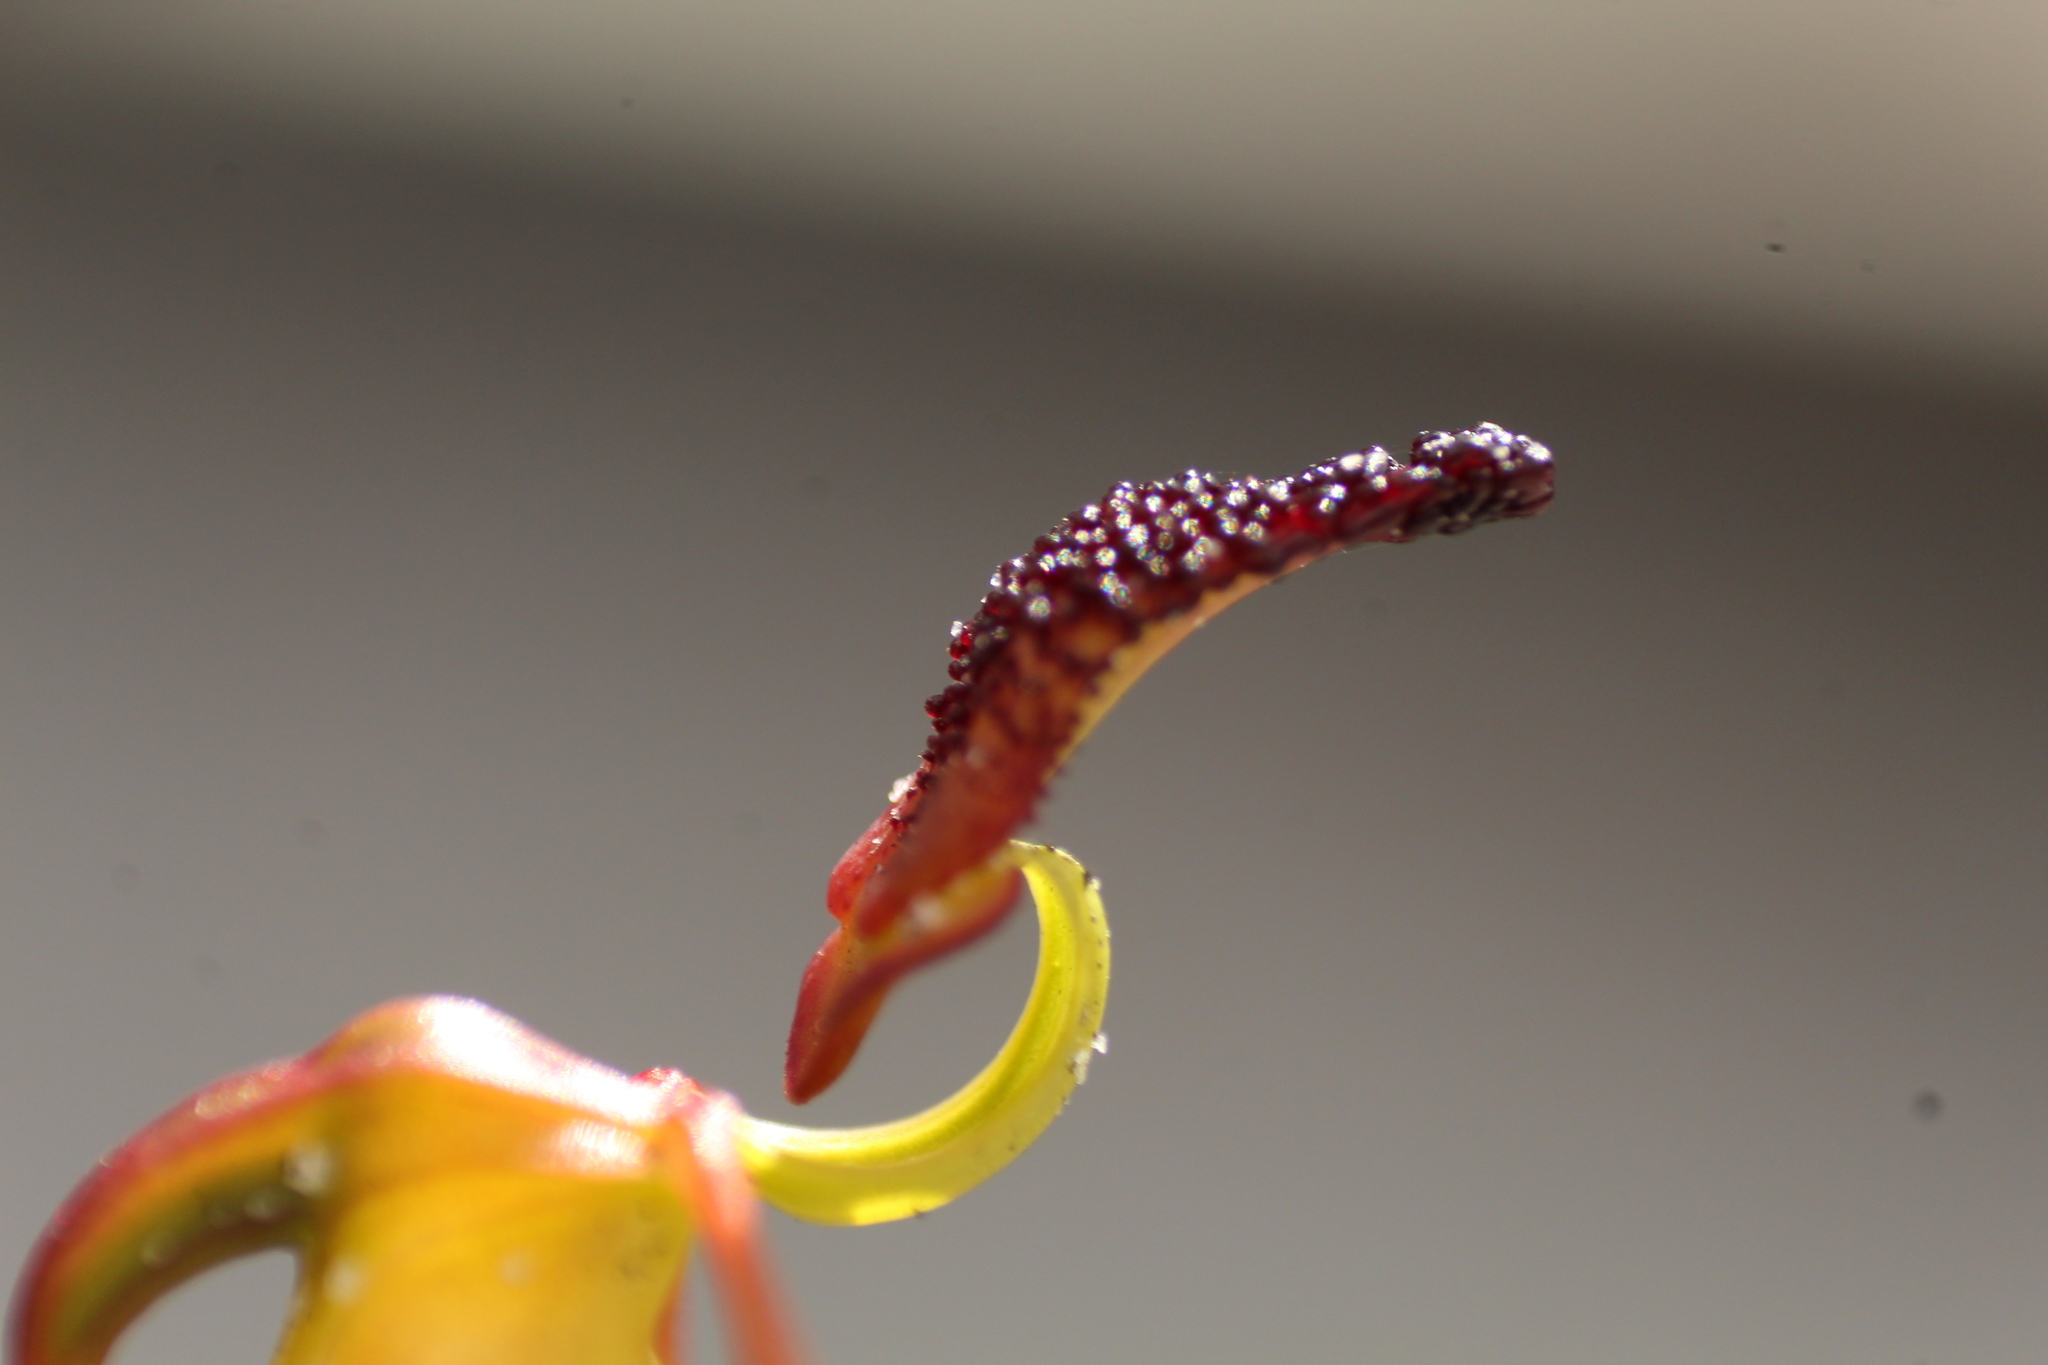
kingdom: Plantae
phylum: Tracheophyta
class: Liliopsida
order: Asparagales
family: Orchidaceae
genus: Caleana
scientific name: Caleana nigrita
